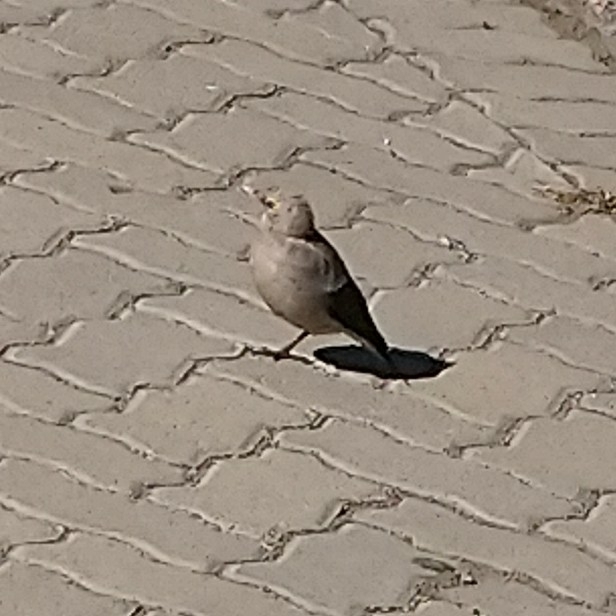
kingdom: Animalia
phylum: Chordata
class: Aves
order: Passeriformes
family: Sturnidae
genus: Creatophora
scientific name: Creatophora cinerea
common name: Wattled starling
